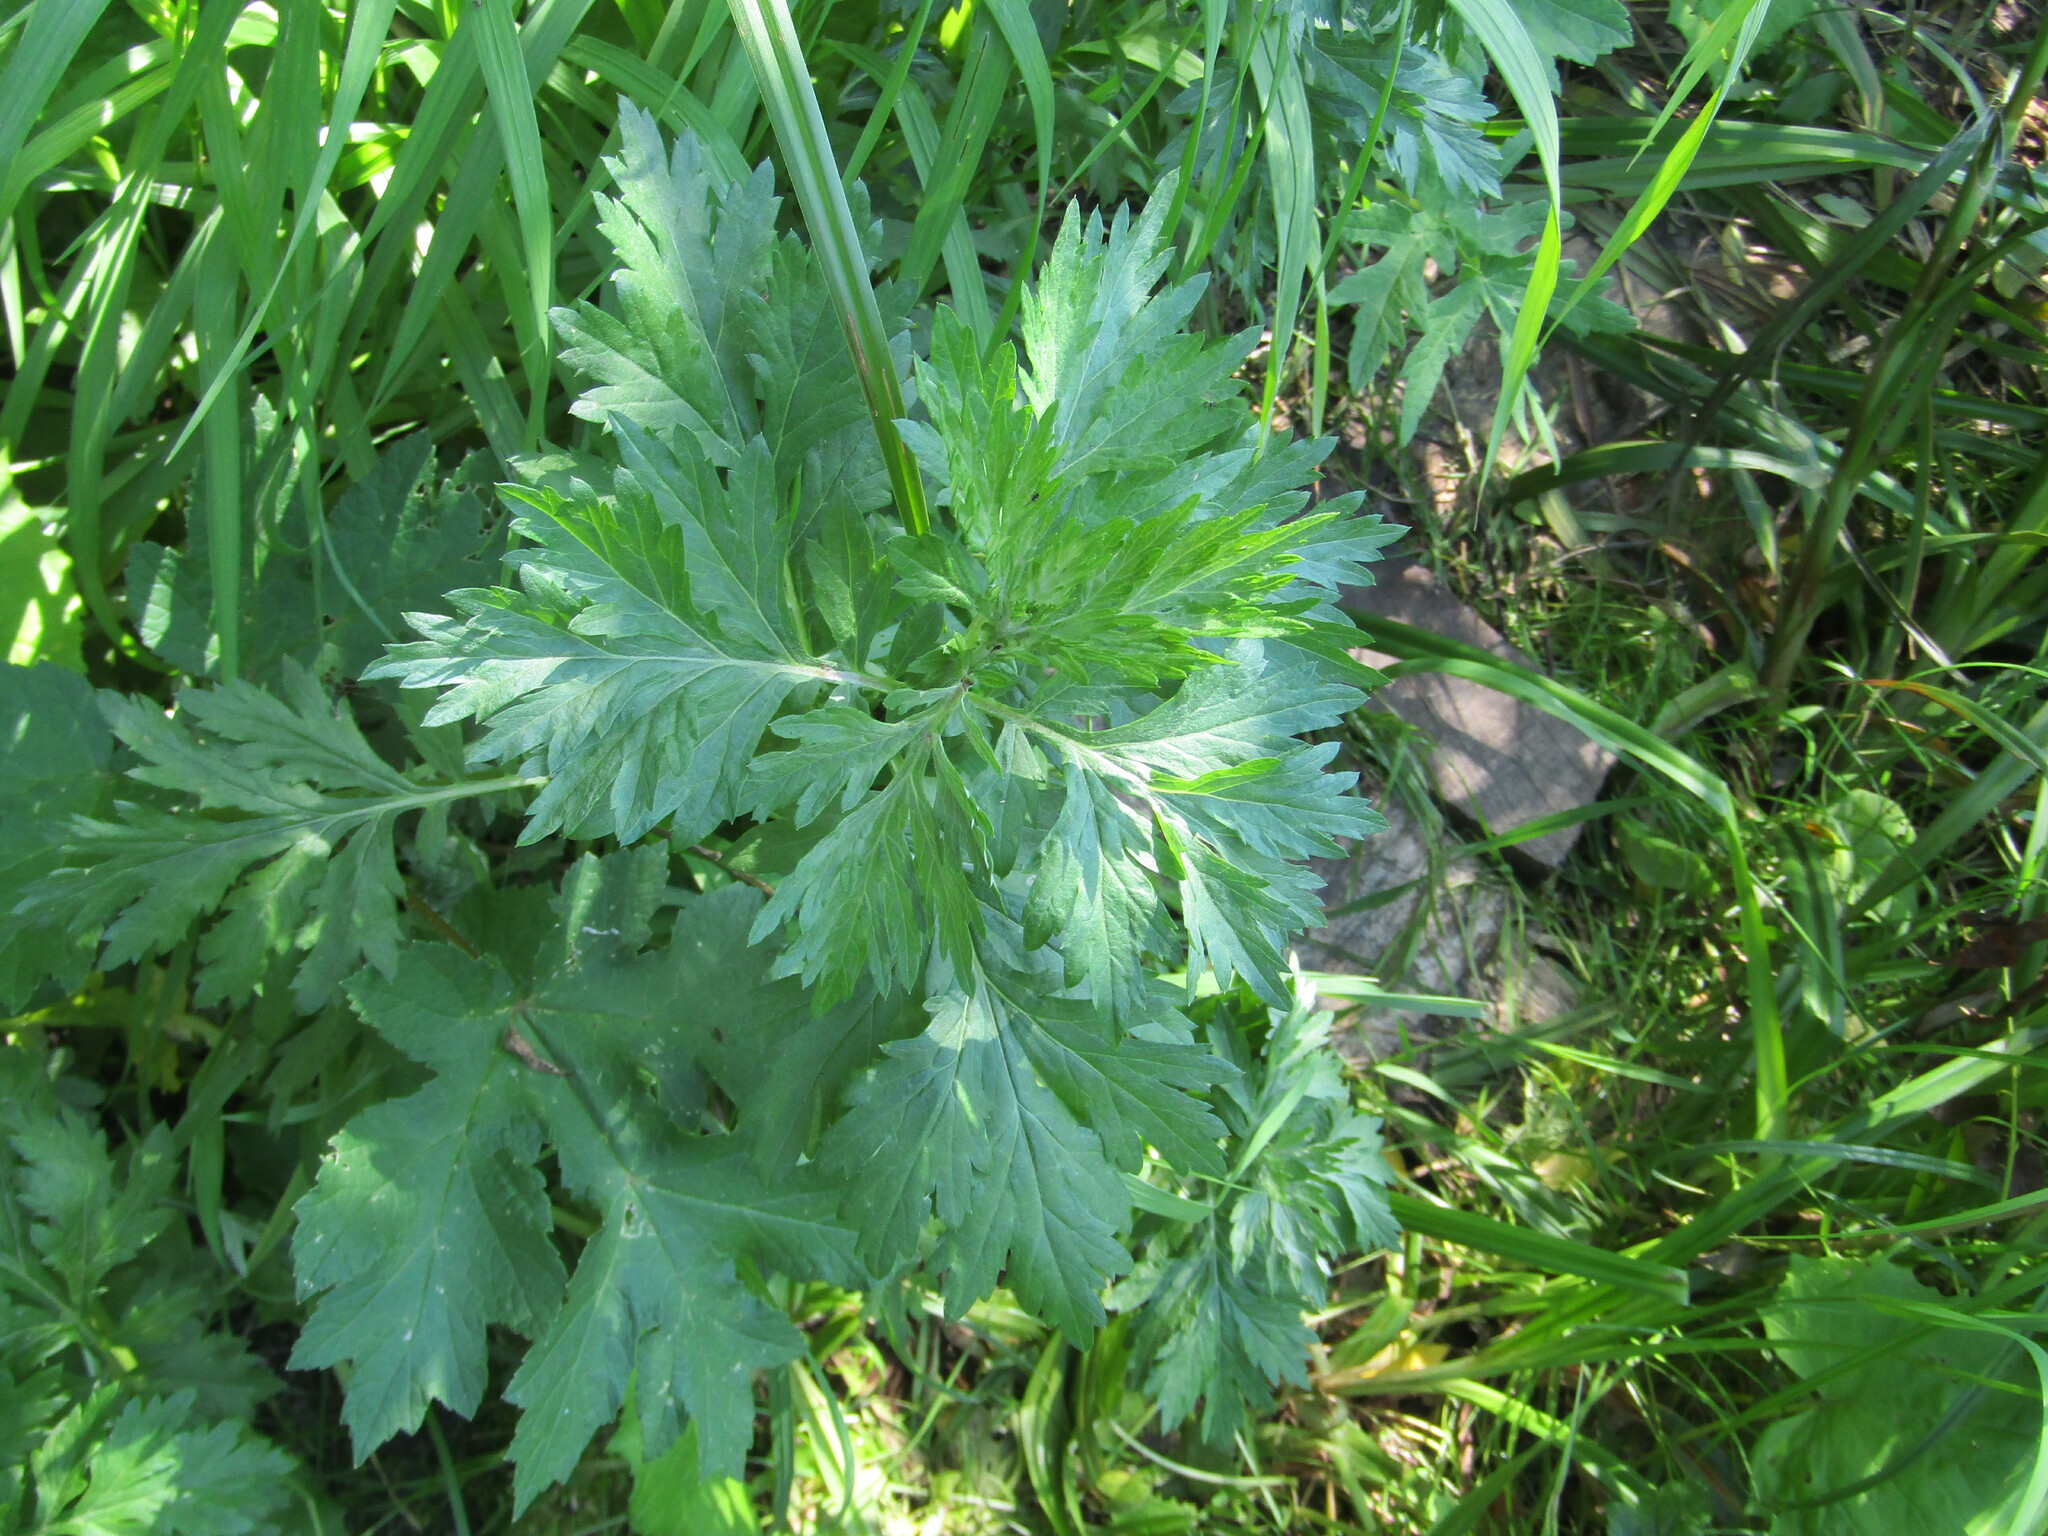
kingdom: Plantae
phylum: Tracheophyta
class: Magnoliopsida
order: Asterales
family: Asteraceae
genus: Artemisia
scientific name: Artemisia vulgaris
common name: Mugwort
